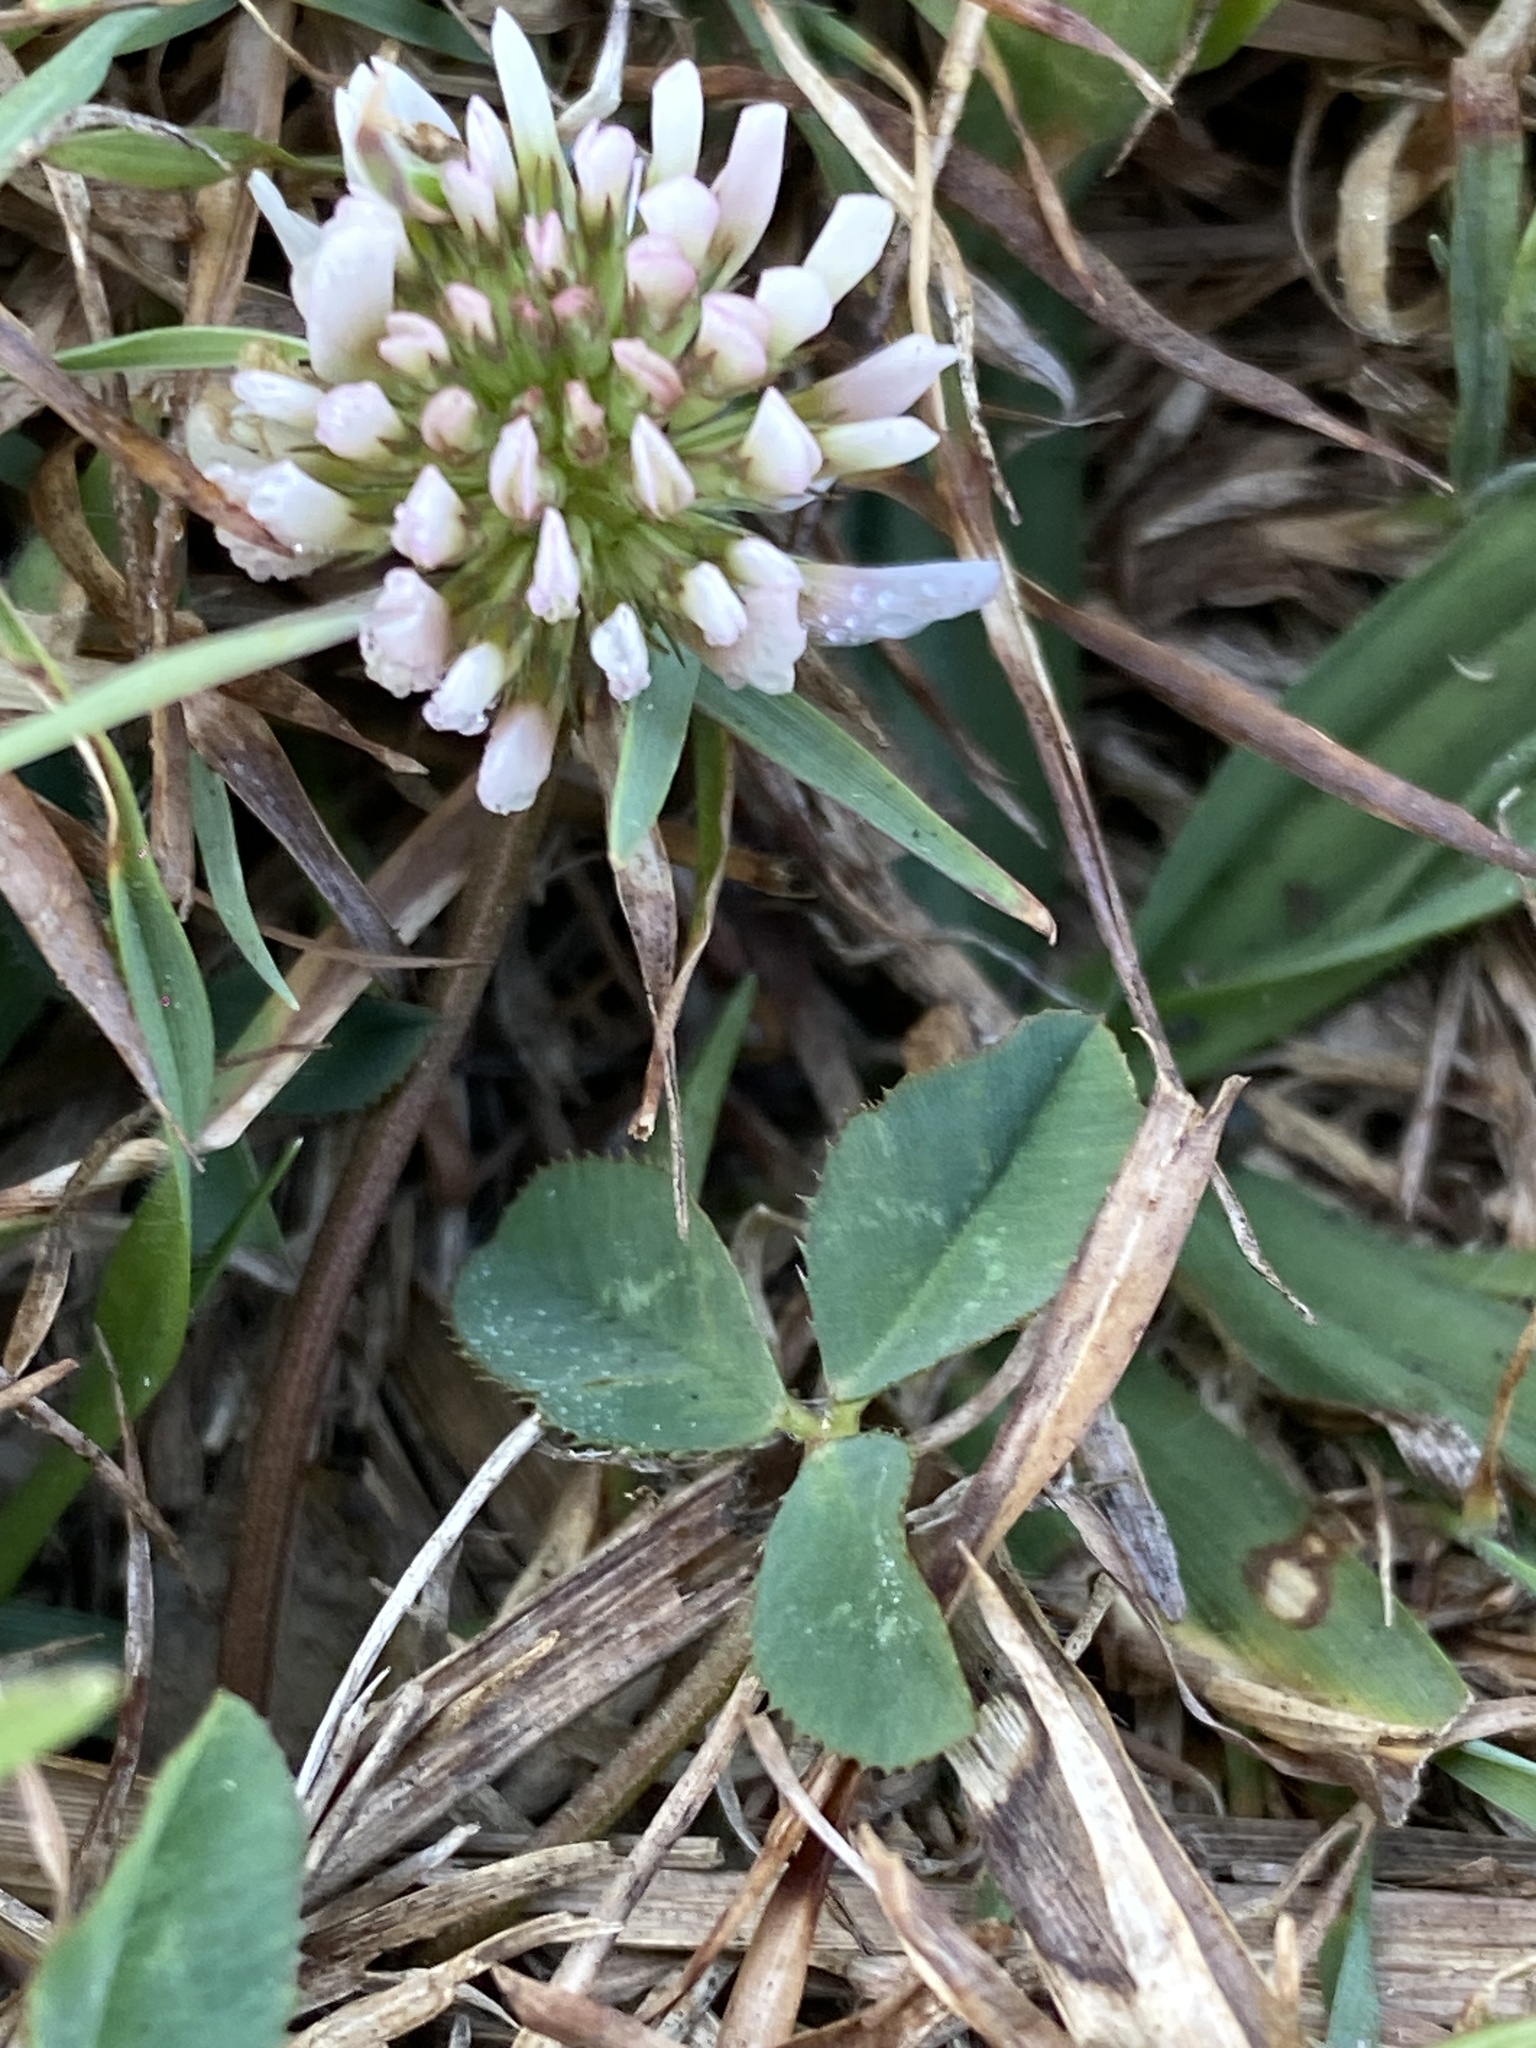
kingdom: Plantae
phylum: Tracheophyta
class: Magnoliopsida
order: Fabales
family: Fabaceae
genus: Trifolium
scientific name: Trifolium repens
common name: White clover
